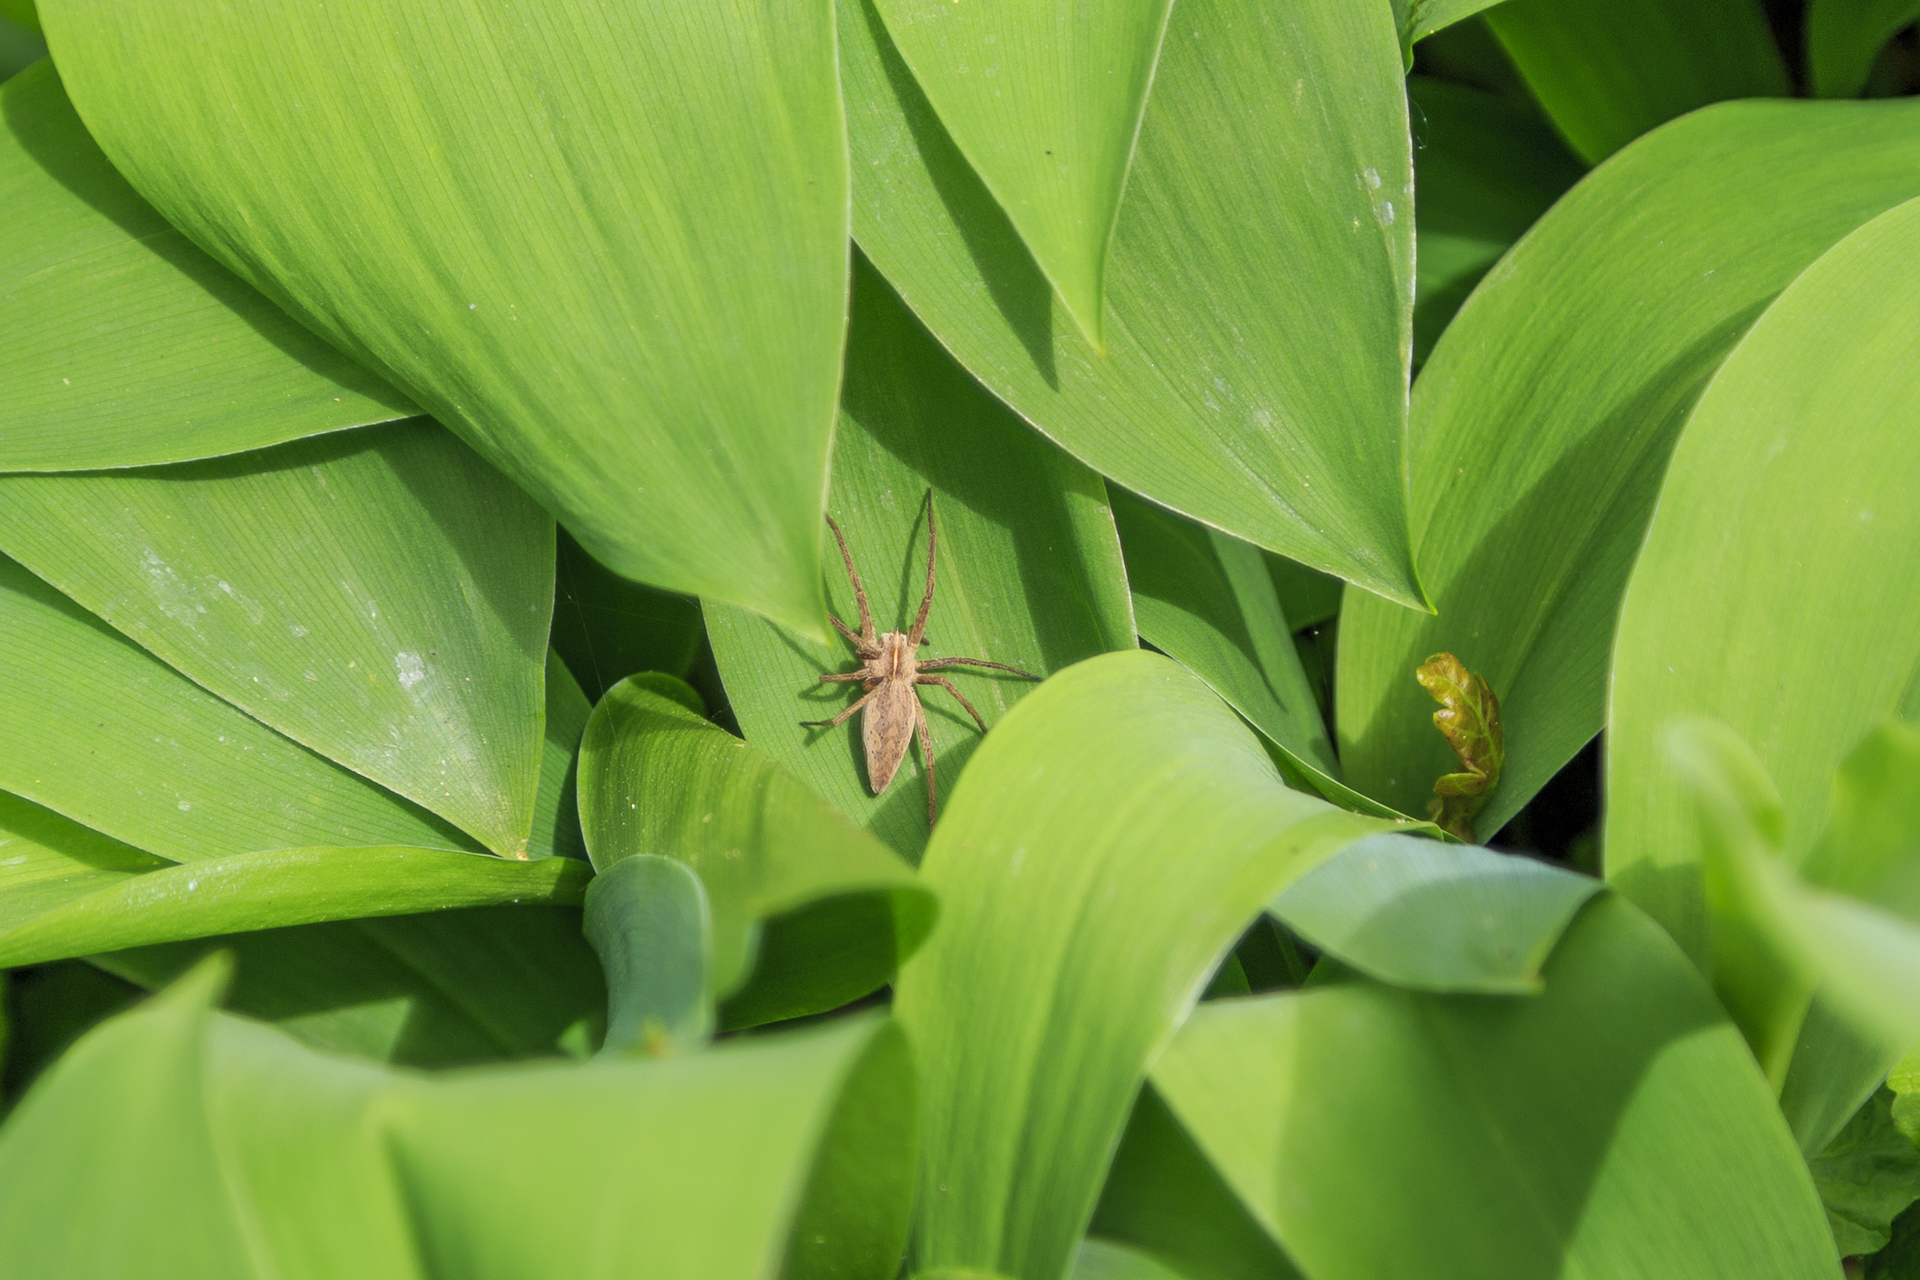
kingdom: Animalia
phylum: Arthropoda
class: Arachnida
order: Araneae
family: Pisauridae
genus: Pisaura
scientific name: Pisaura mirabilis
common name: Tent spider
